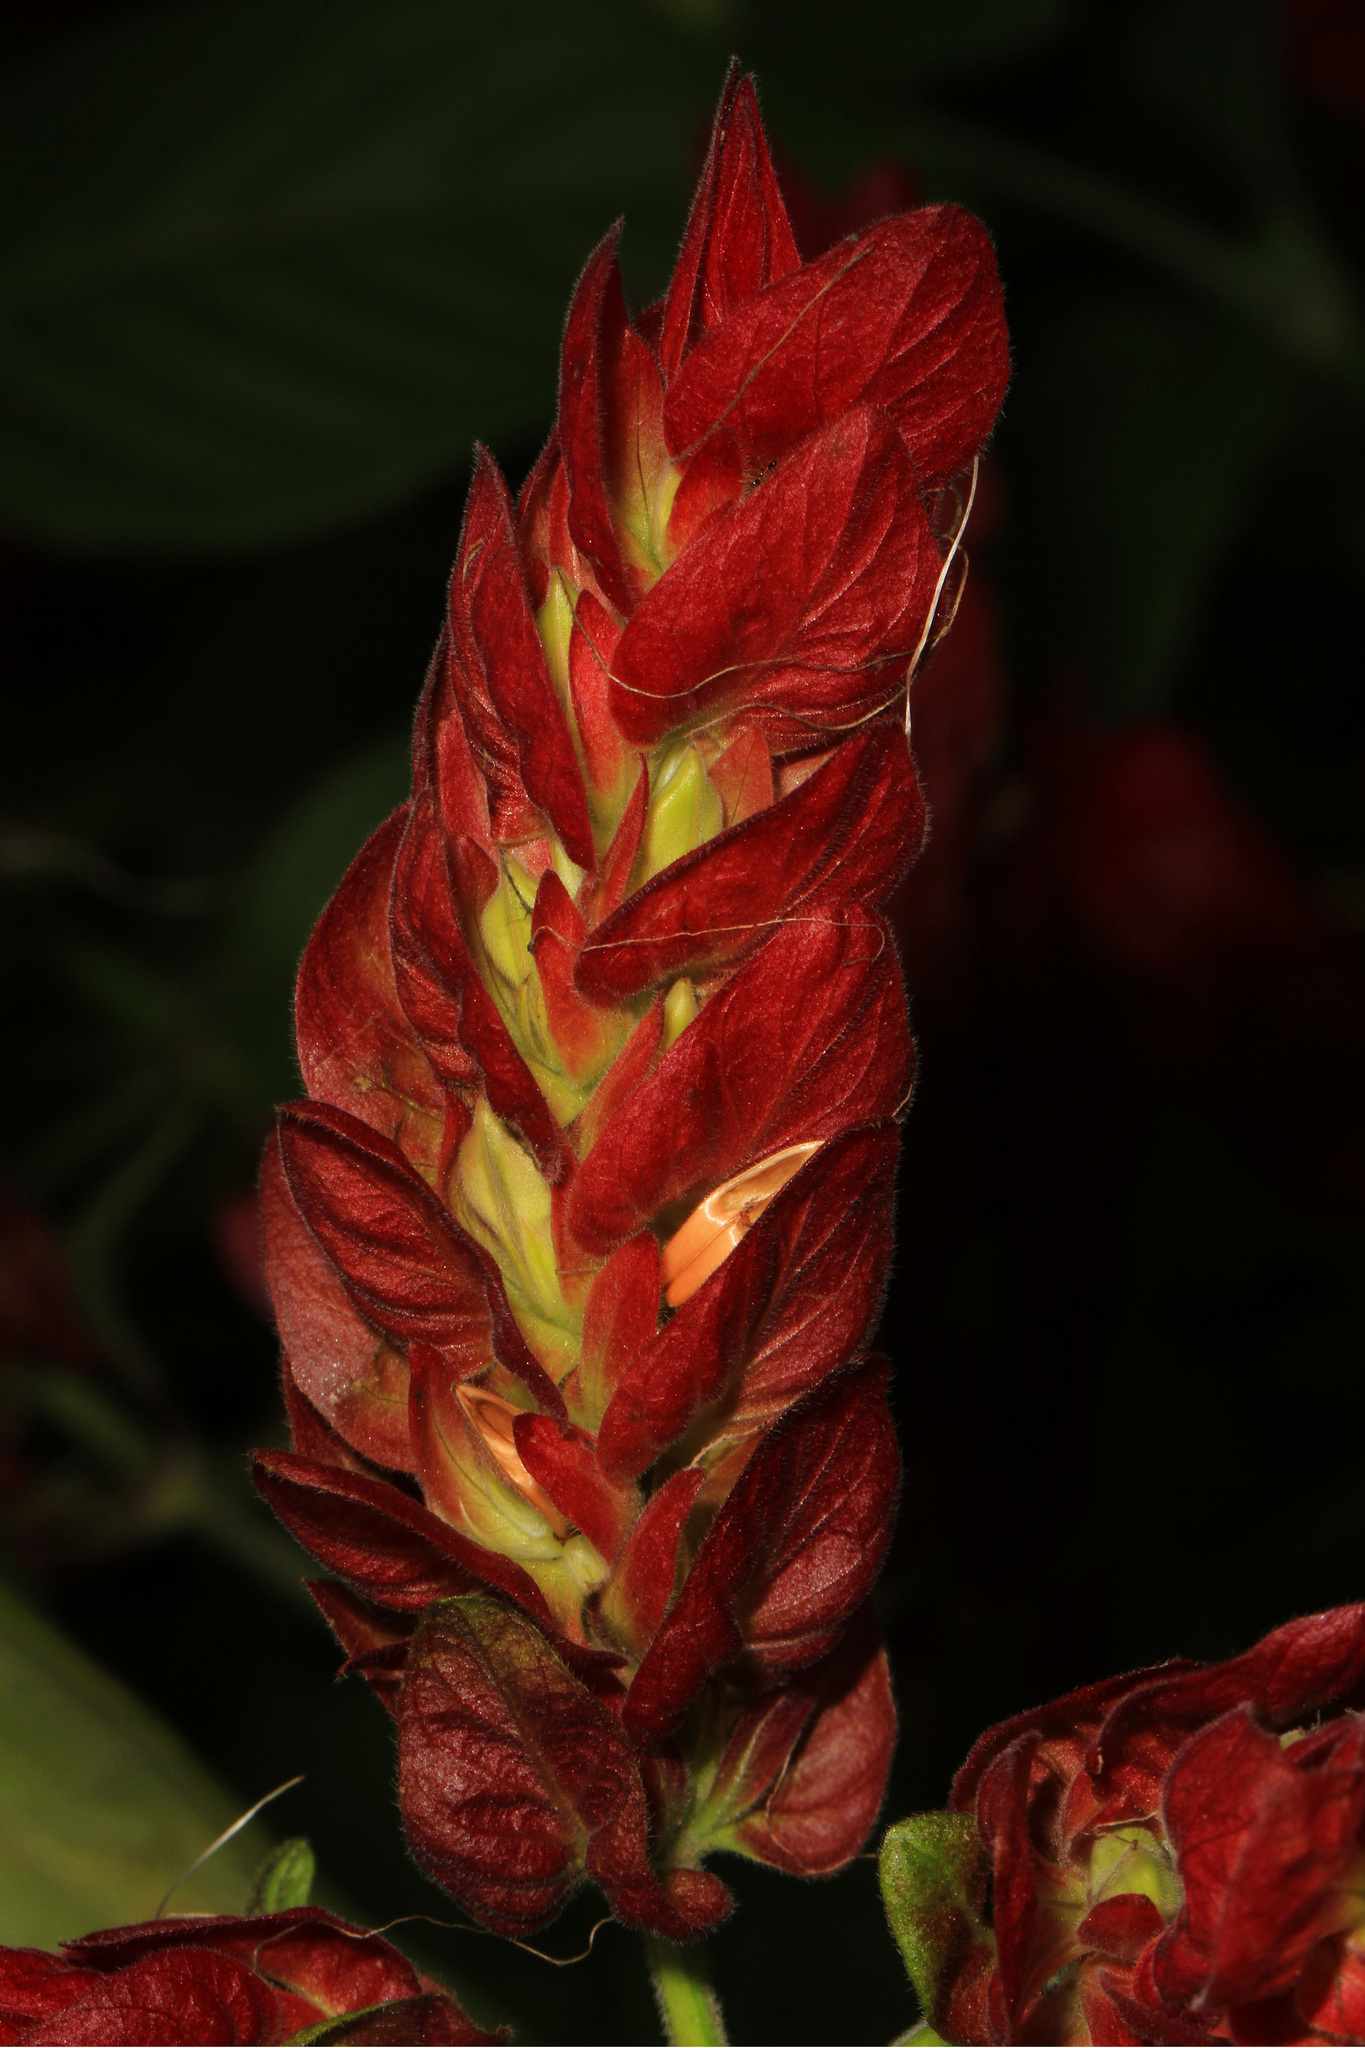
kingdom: Plantae
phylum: Tracheophyta
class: Magnoliopsida
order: Lamiales
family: Acanthaceae
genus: Justicia
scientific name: Justicia brandegeeana
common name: Shrimpplant
